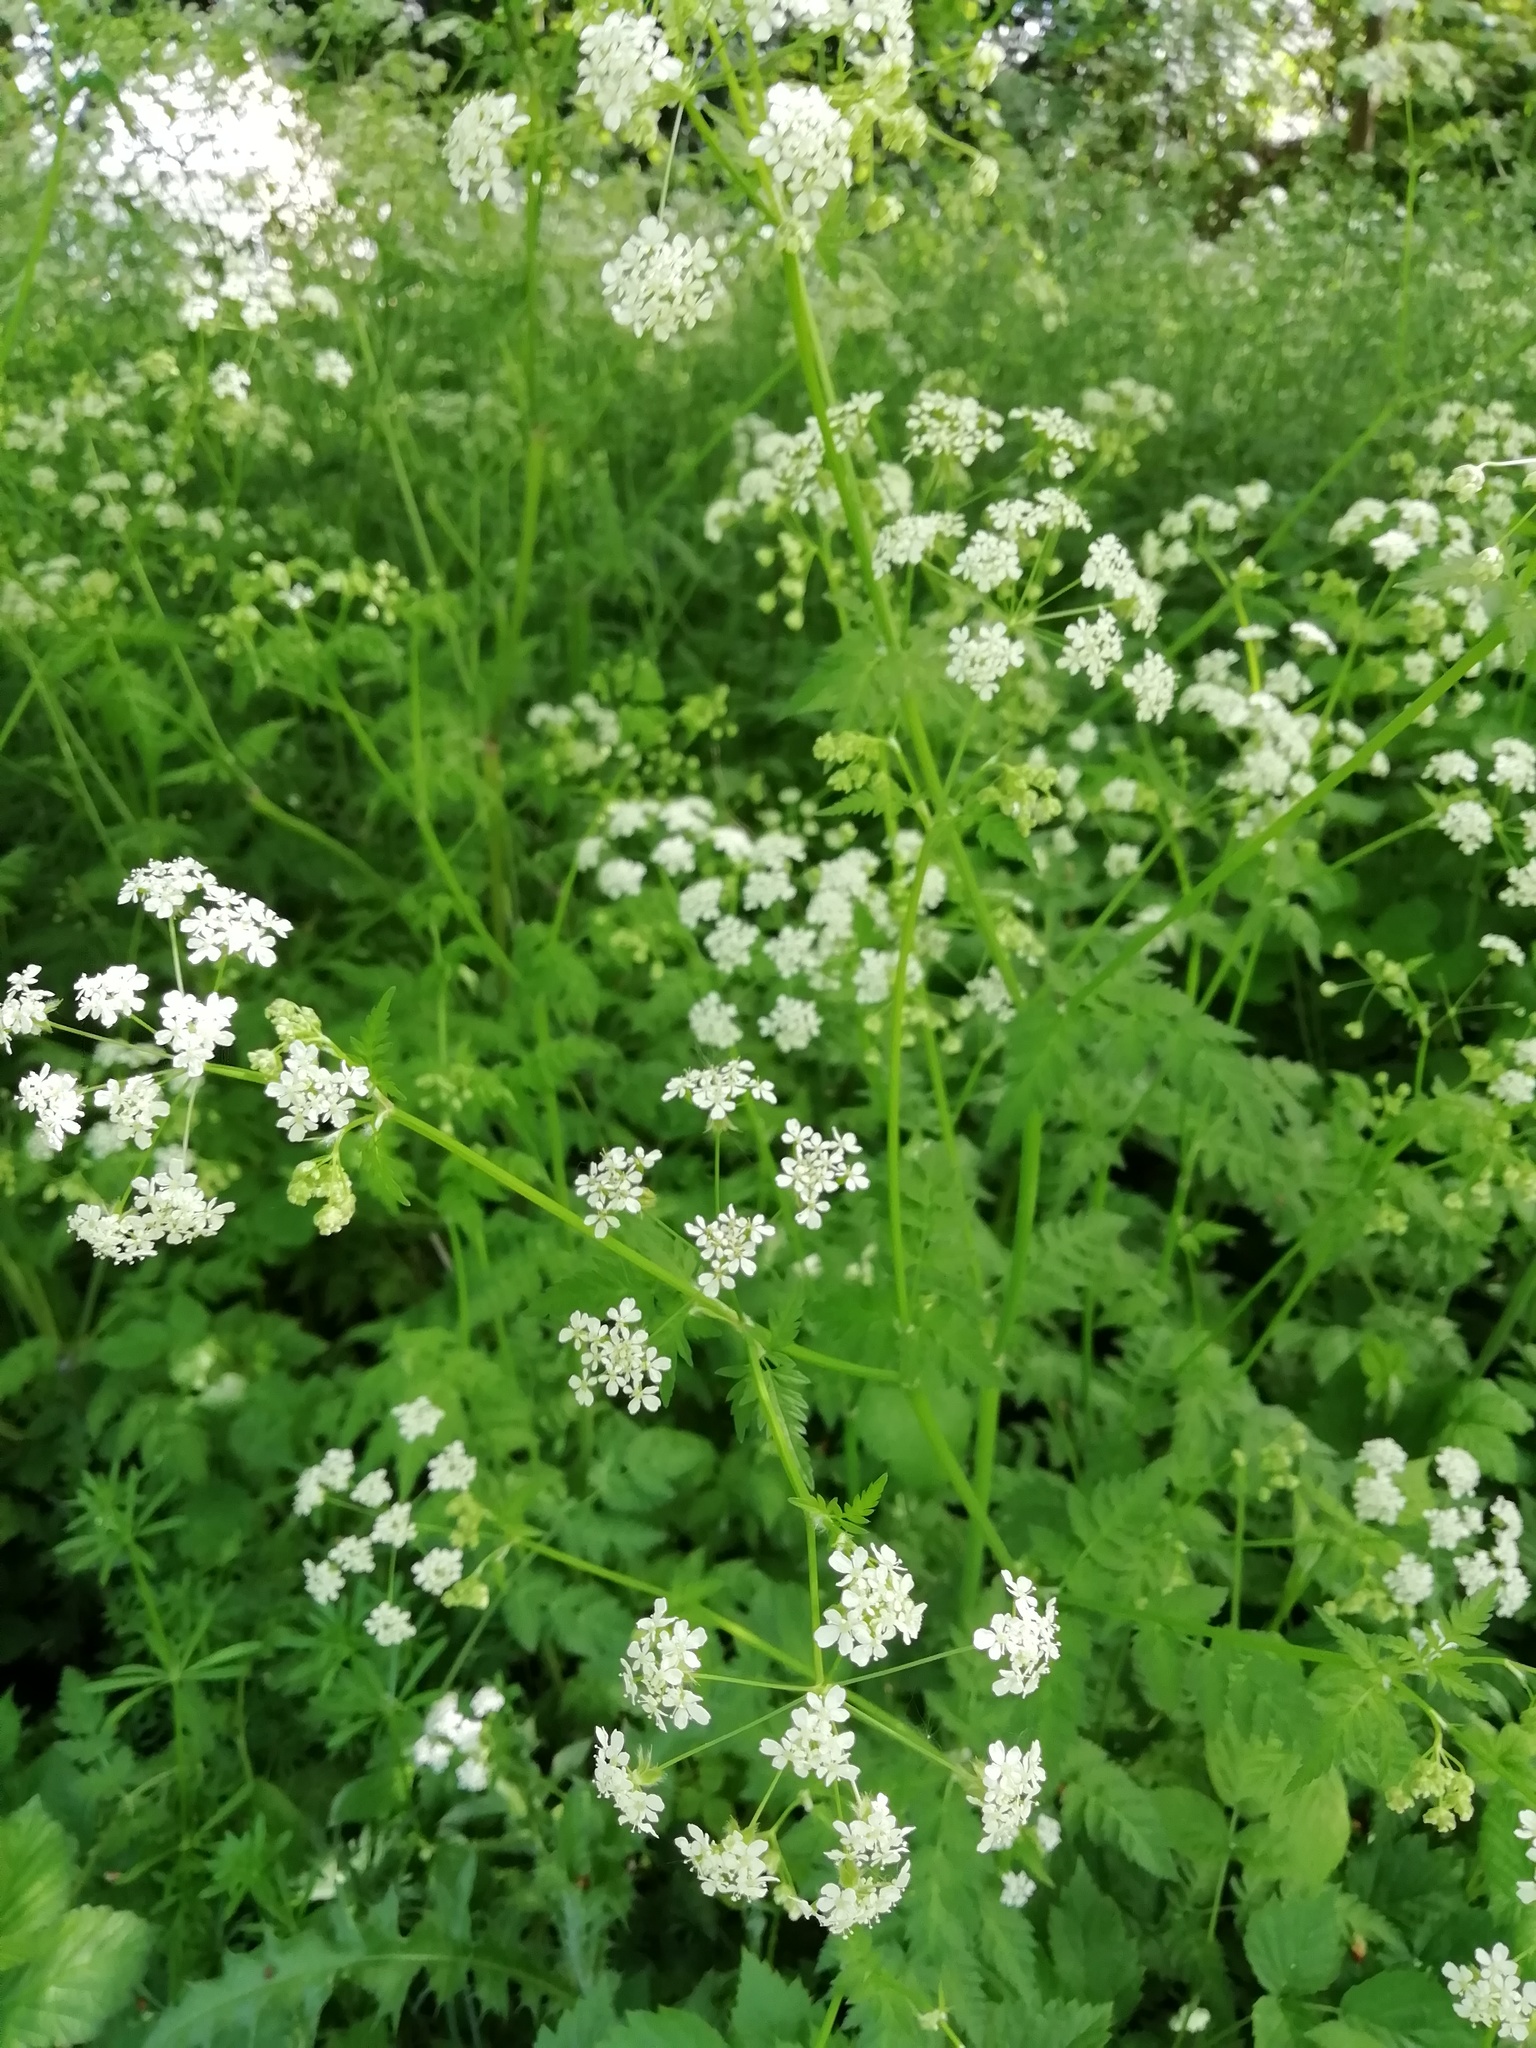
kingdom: Plantae
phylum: Tracheophyta
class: Magnoliopsida
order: Apiales
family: Apiaceae
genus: Anthriscus
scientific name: Anthriscus sylvestris
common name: Cow parsley
